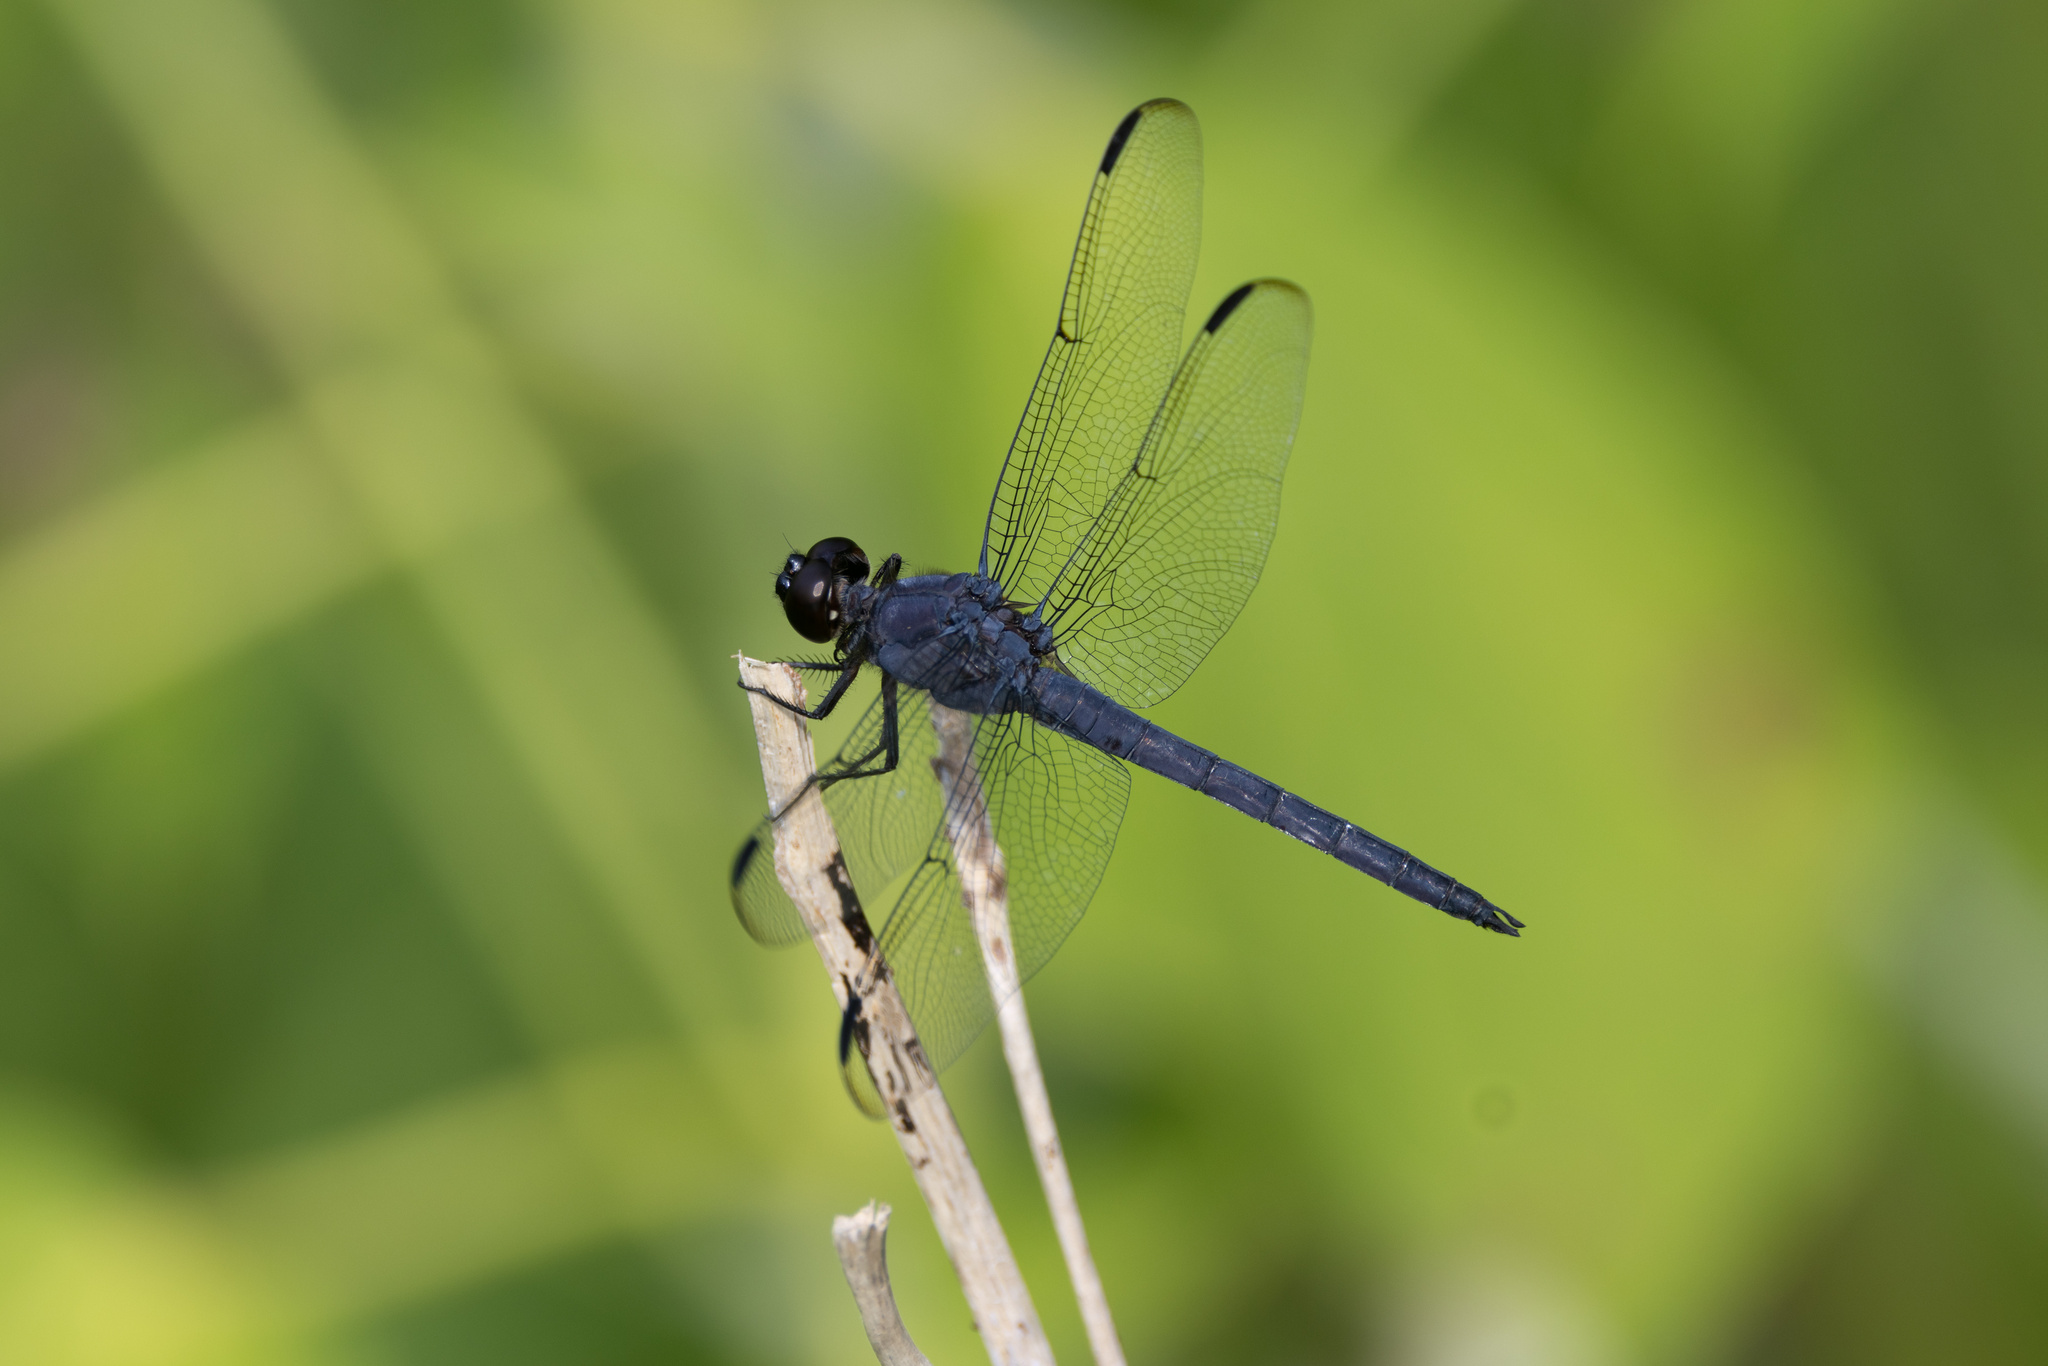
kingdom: Animalia
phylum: Arthropoda
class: Insecta
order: Odonata
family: Libellulidae
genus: Libellula
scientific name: Libellula incesta
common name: Slaty skimmer
